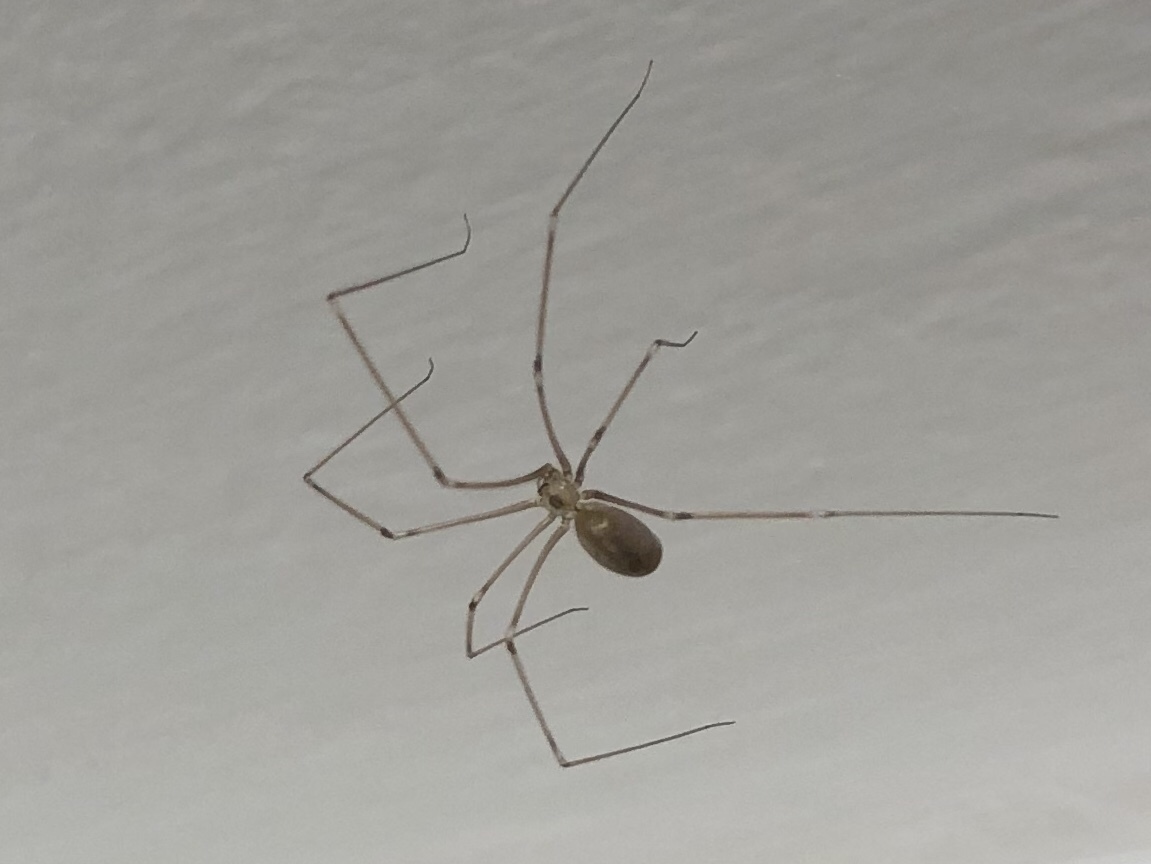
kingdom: Animalia
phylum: Arthropoda
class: Arachnida
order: Araneae
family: Pholcidae
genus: Pholcus
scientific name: Pholcus phalangioides
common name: Longbodied cellar spider
